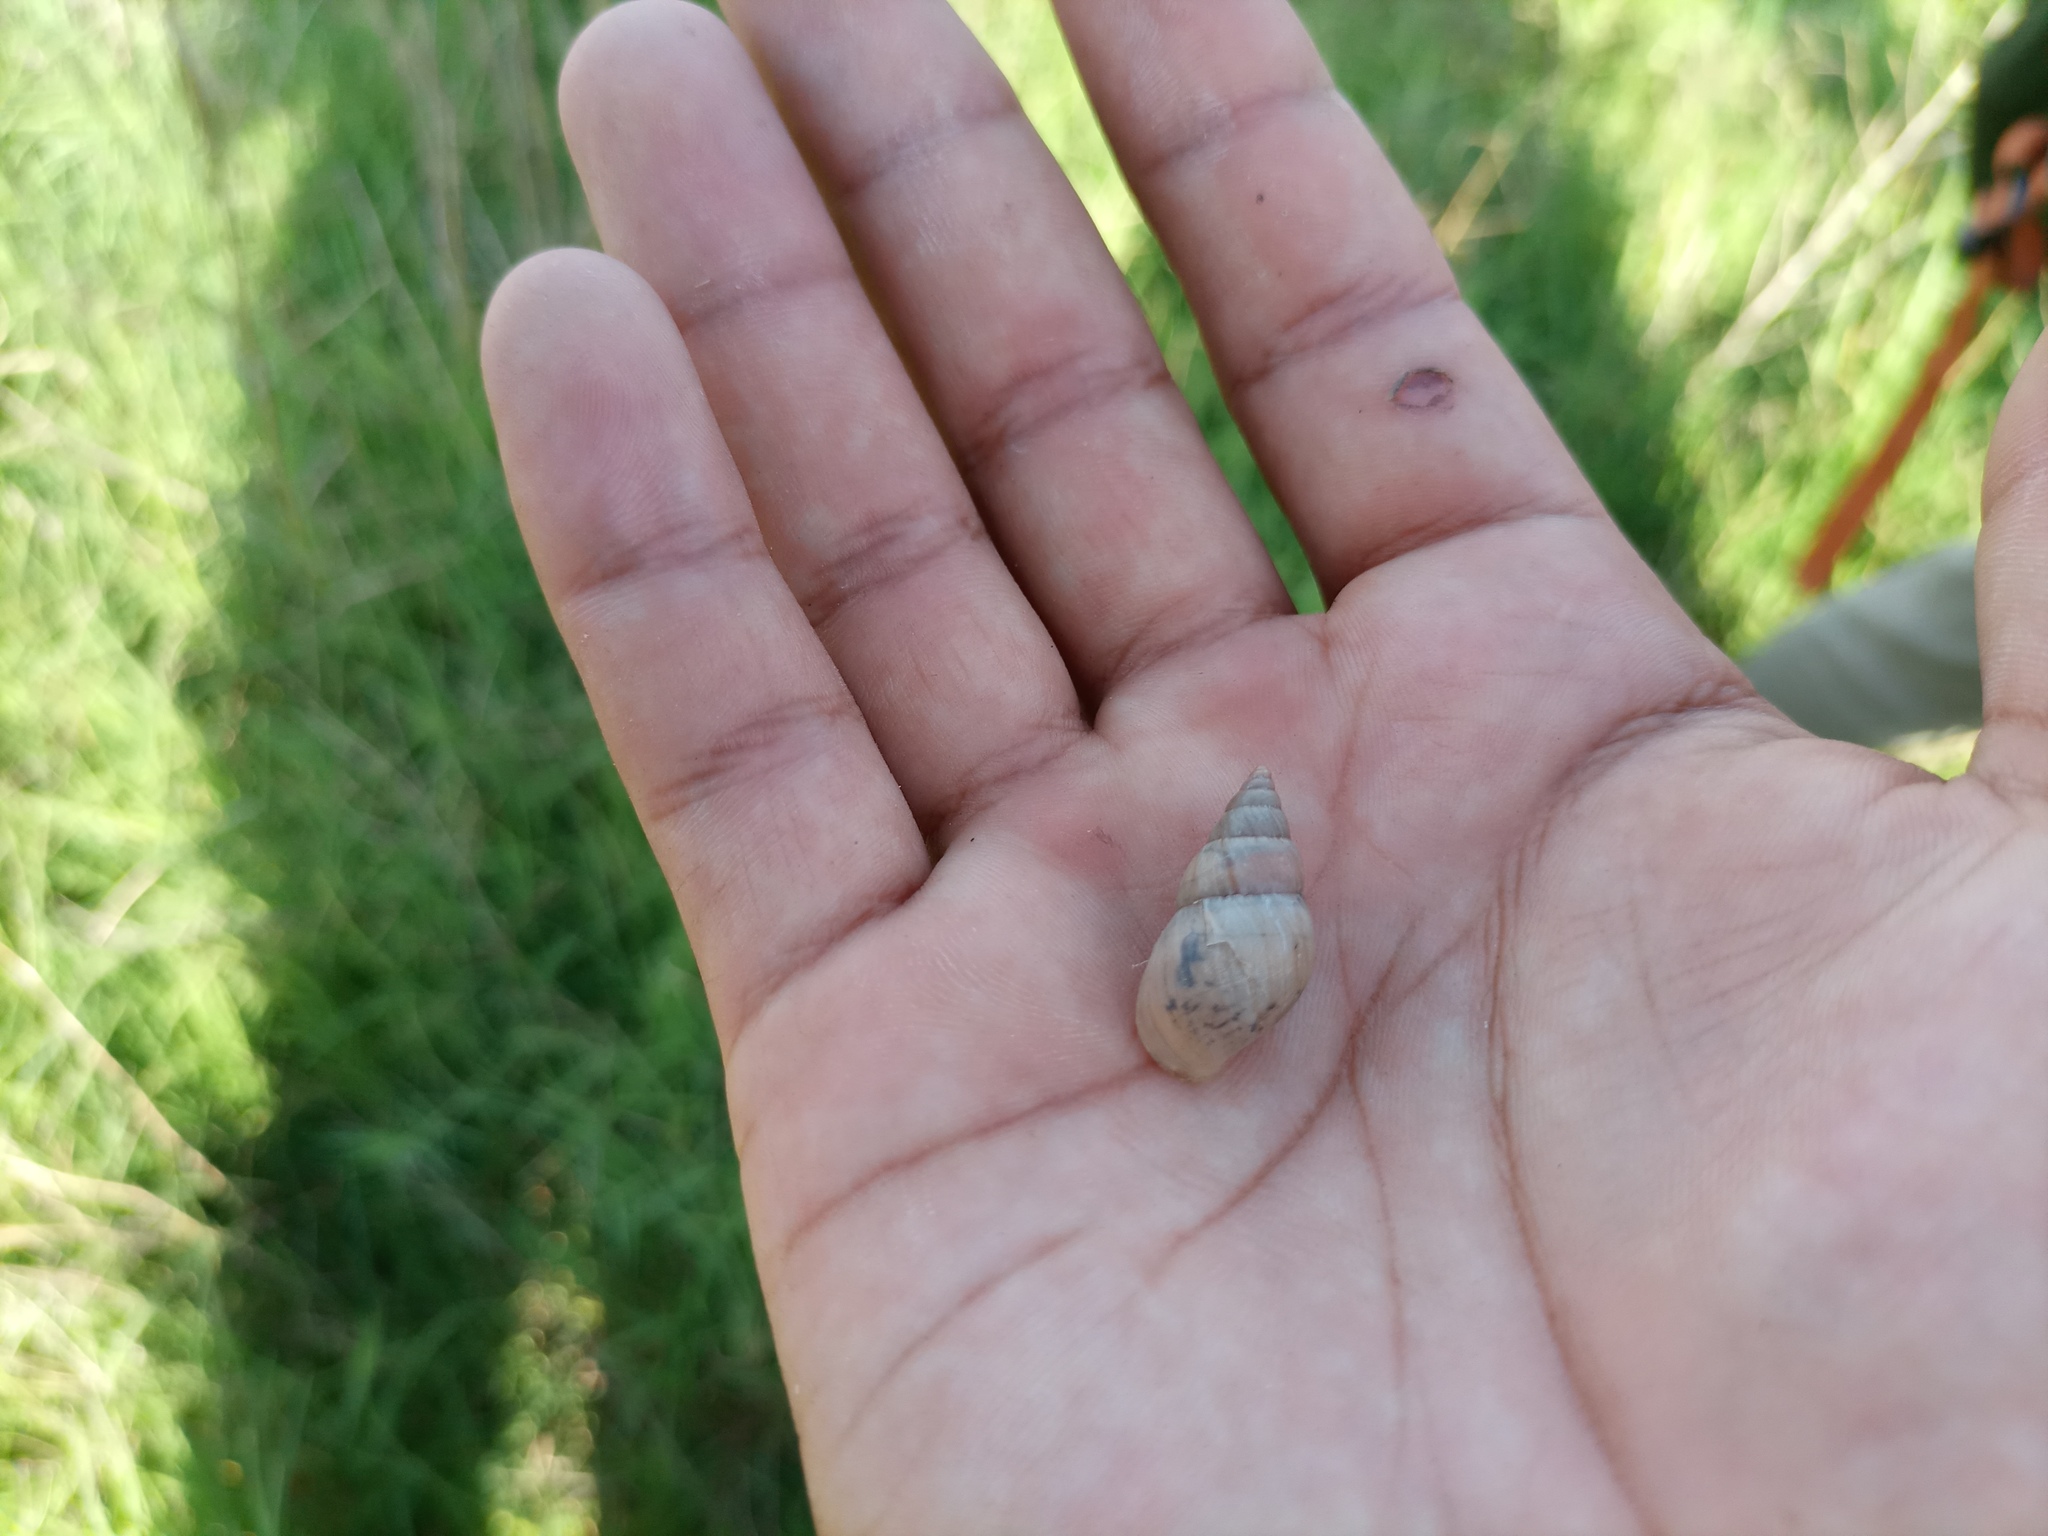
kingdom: Animalia
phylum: Mollusca
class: Gastropoda
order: Stylommatophora
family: Bulimulidae
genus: Bulimulus
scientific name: Bulimulus bonariensis
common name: Snail
